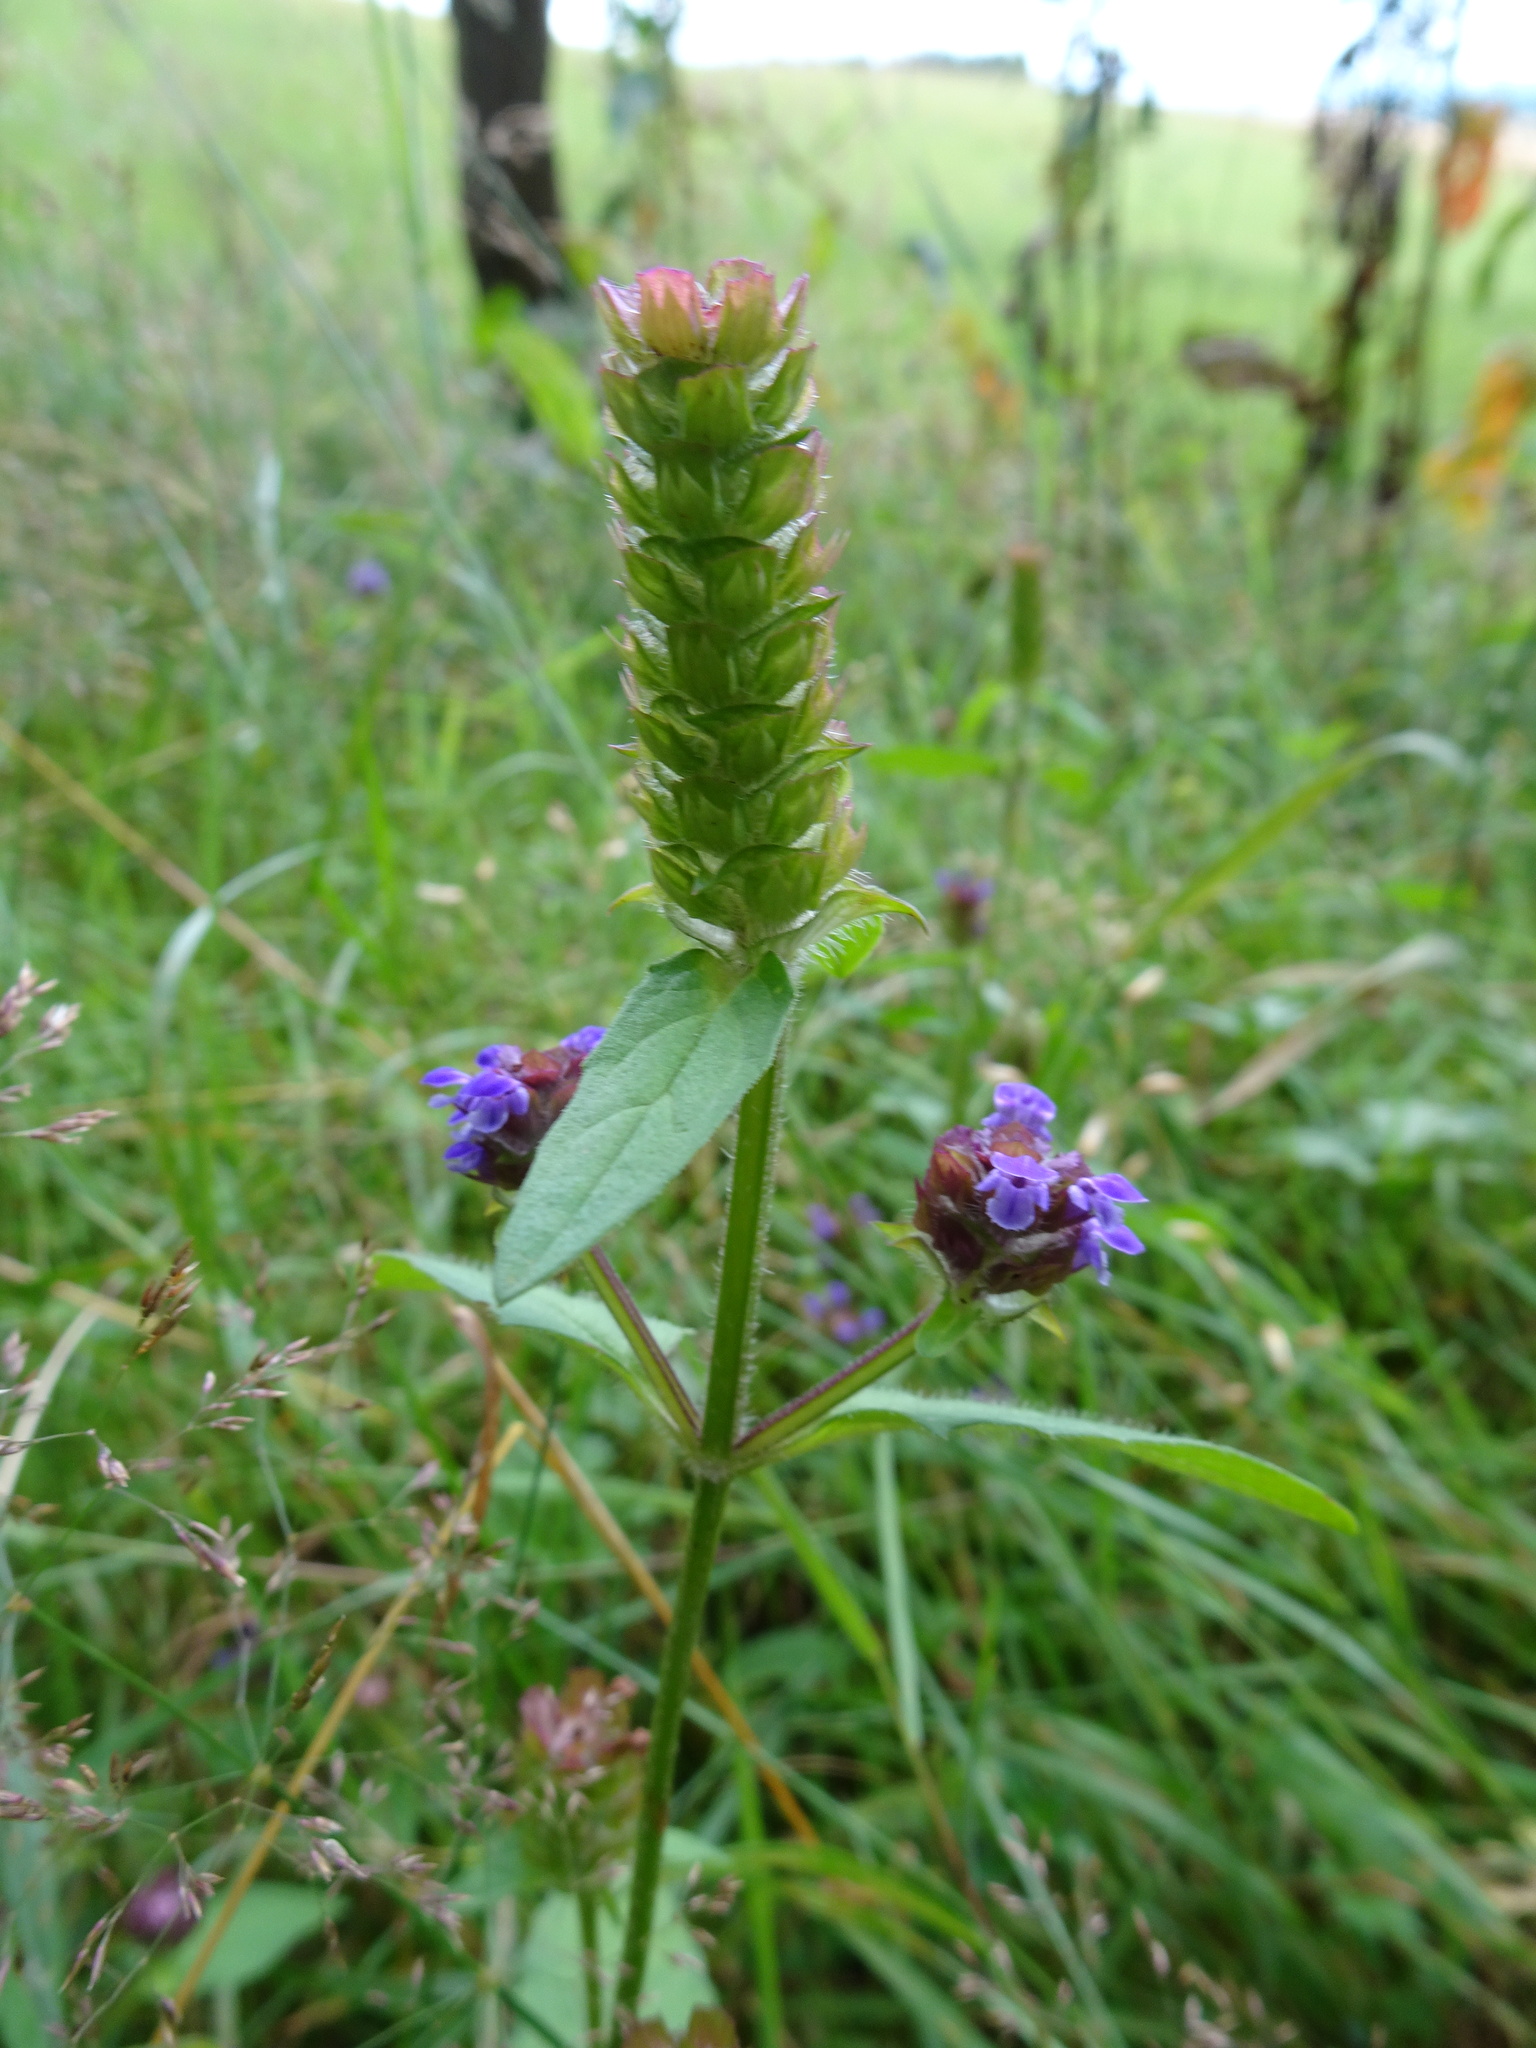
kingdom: Plantae
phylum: Tracheophyta
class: Magnoliopsida
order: Lamiales
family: Lamiaceae
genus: Prunella
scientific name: Prunella vulgaris
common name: Heal-all
